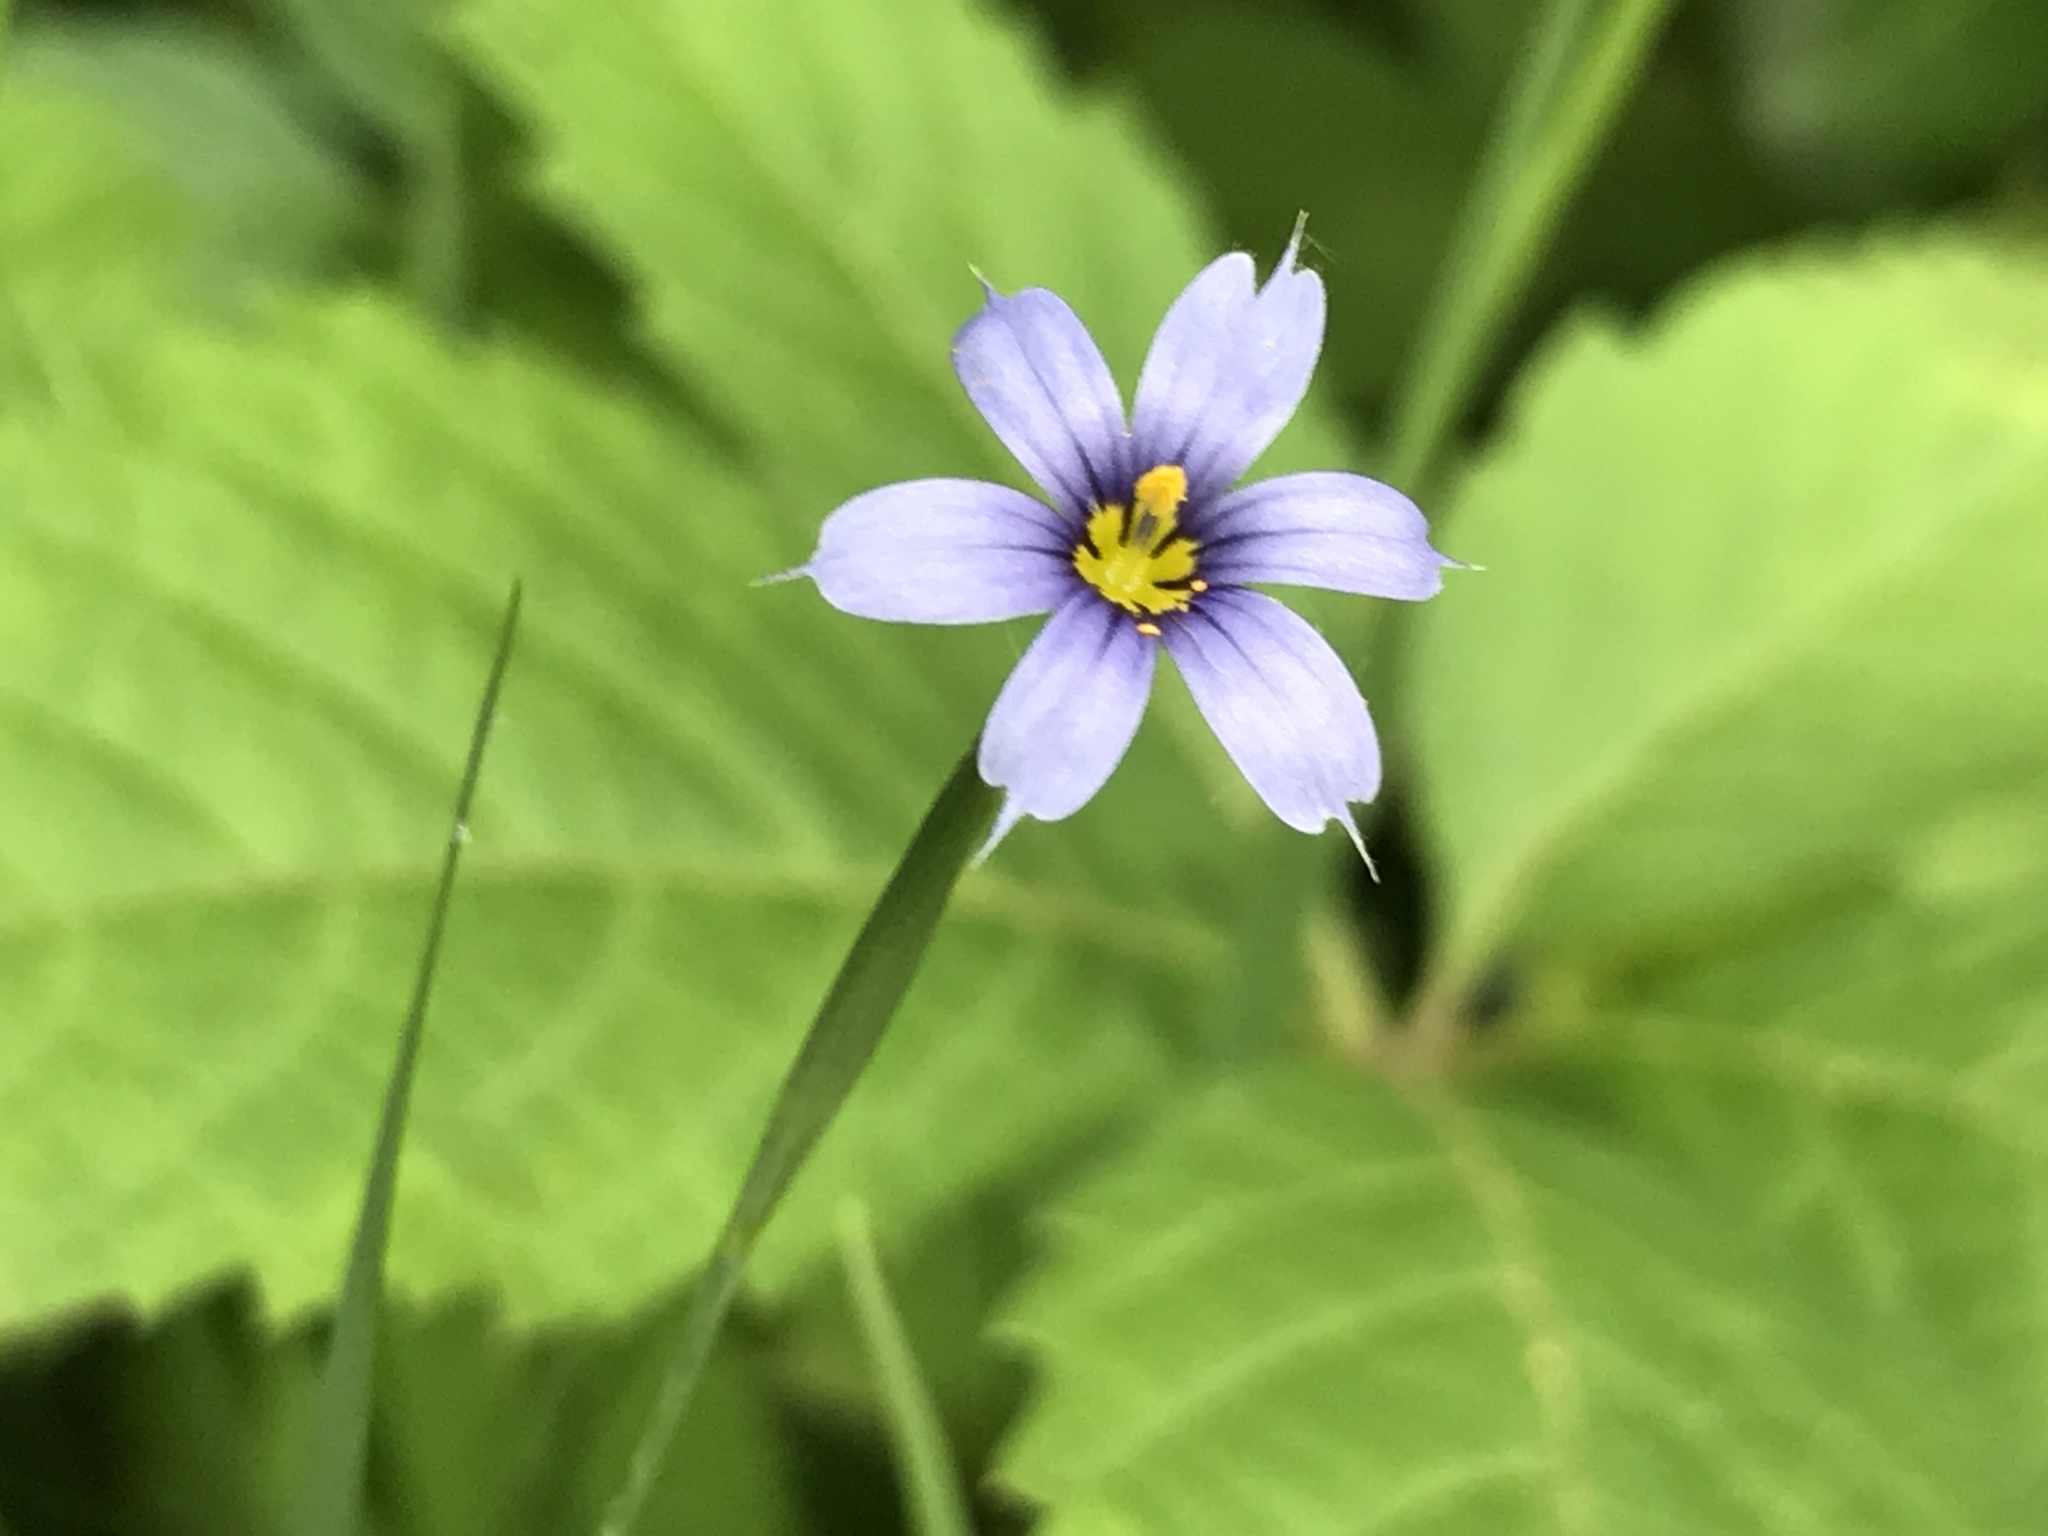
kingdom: Plantae
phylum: Tracheophyta
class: Liliopsida
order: Asparagales
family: Iridaceae
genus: Sisyrinchium
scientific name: Sisyrinchium angustifolium
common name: Narrow-leaf blue-eyed-grass
